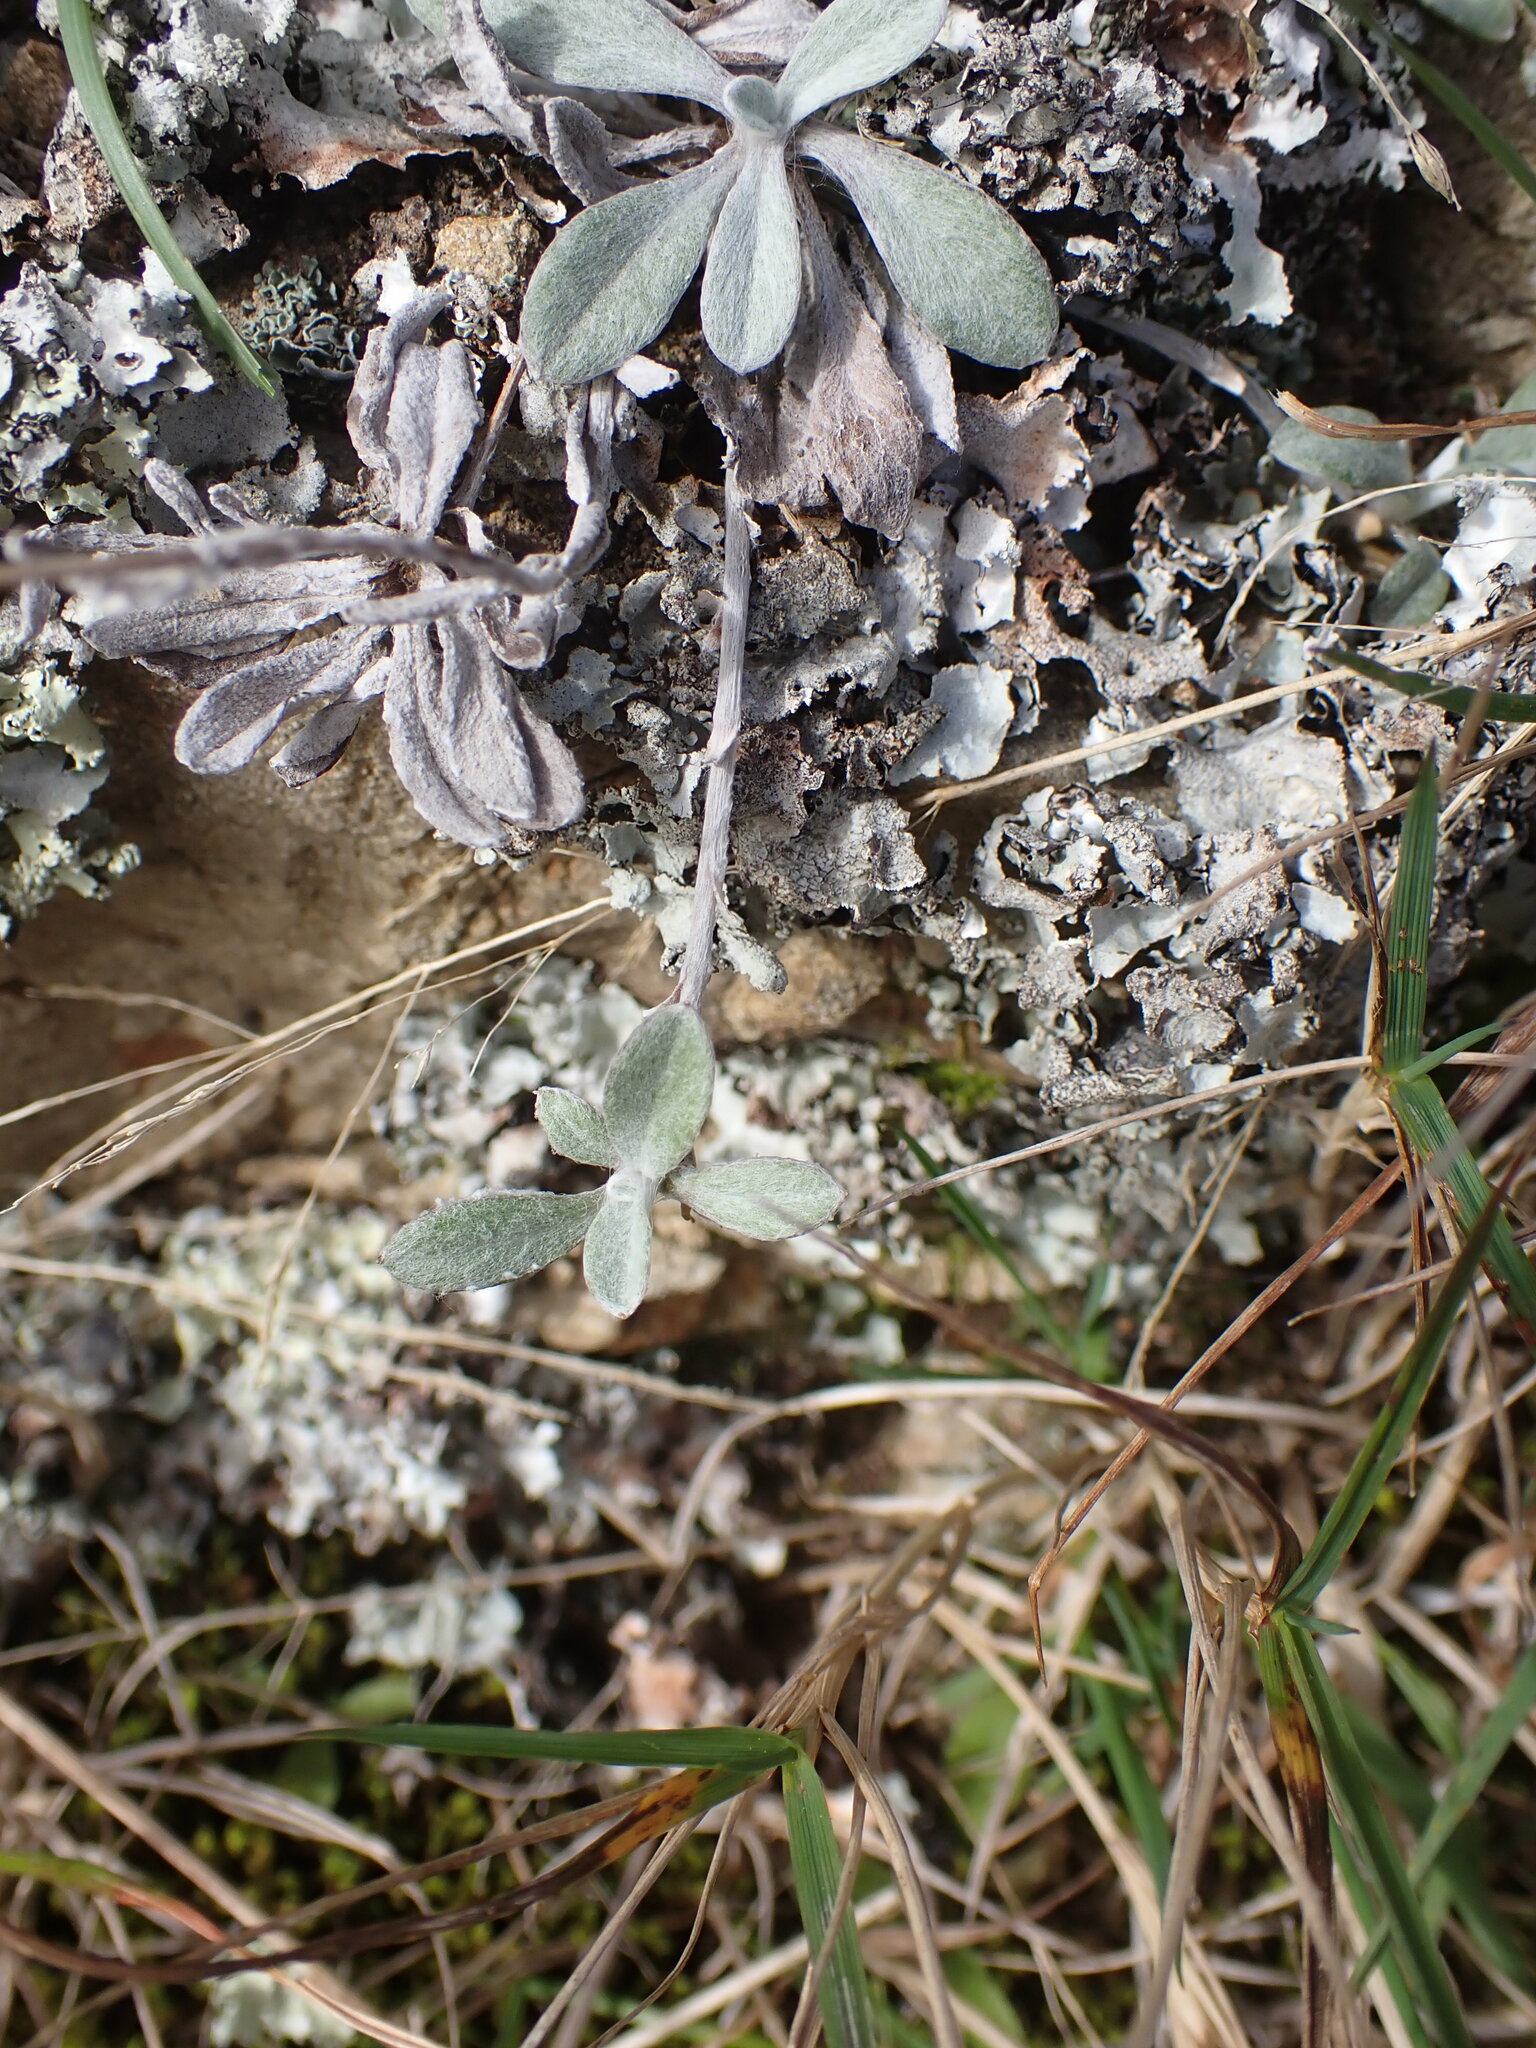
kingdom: Plantae
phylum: Tracheophyta
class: Magnoliopsida
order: Asterales
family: Asteraceae
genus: Euchiton
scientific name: Euchiton audax
